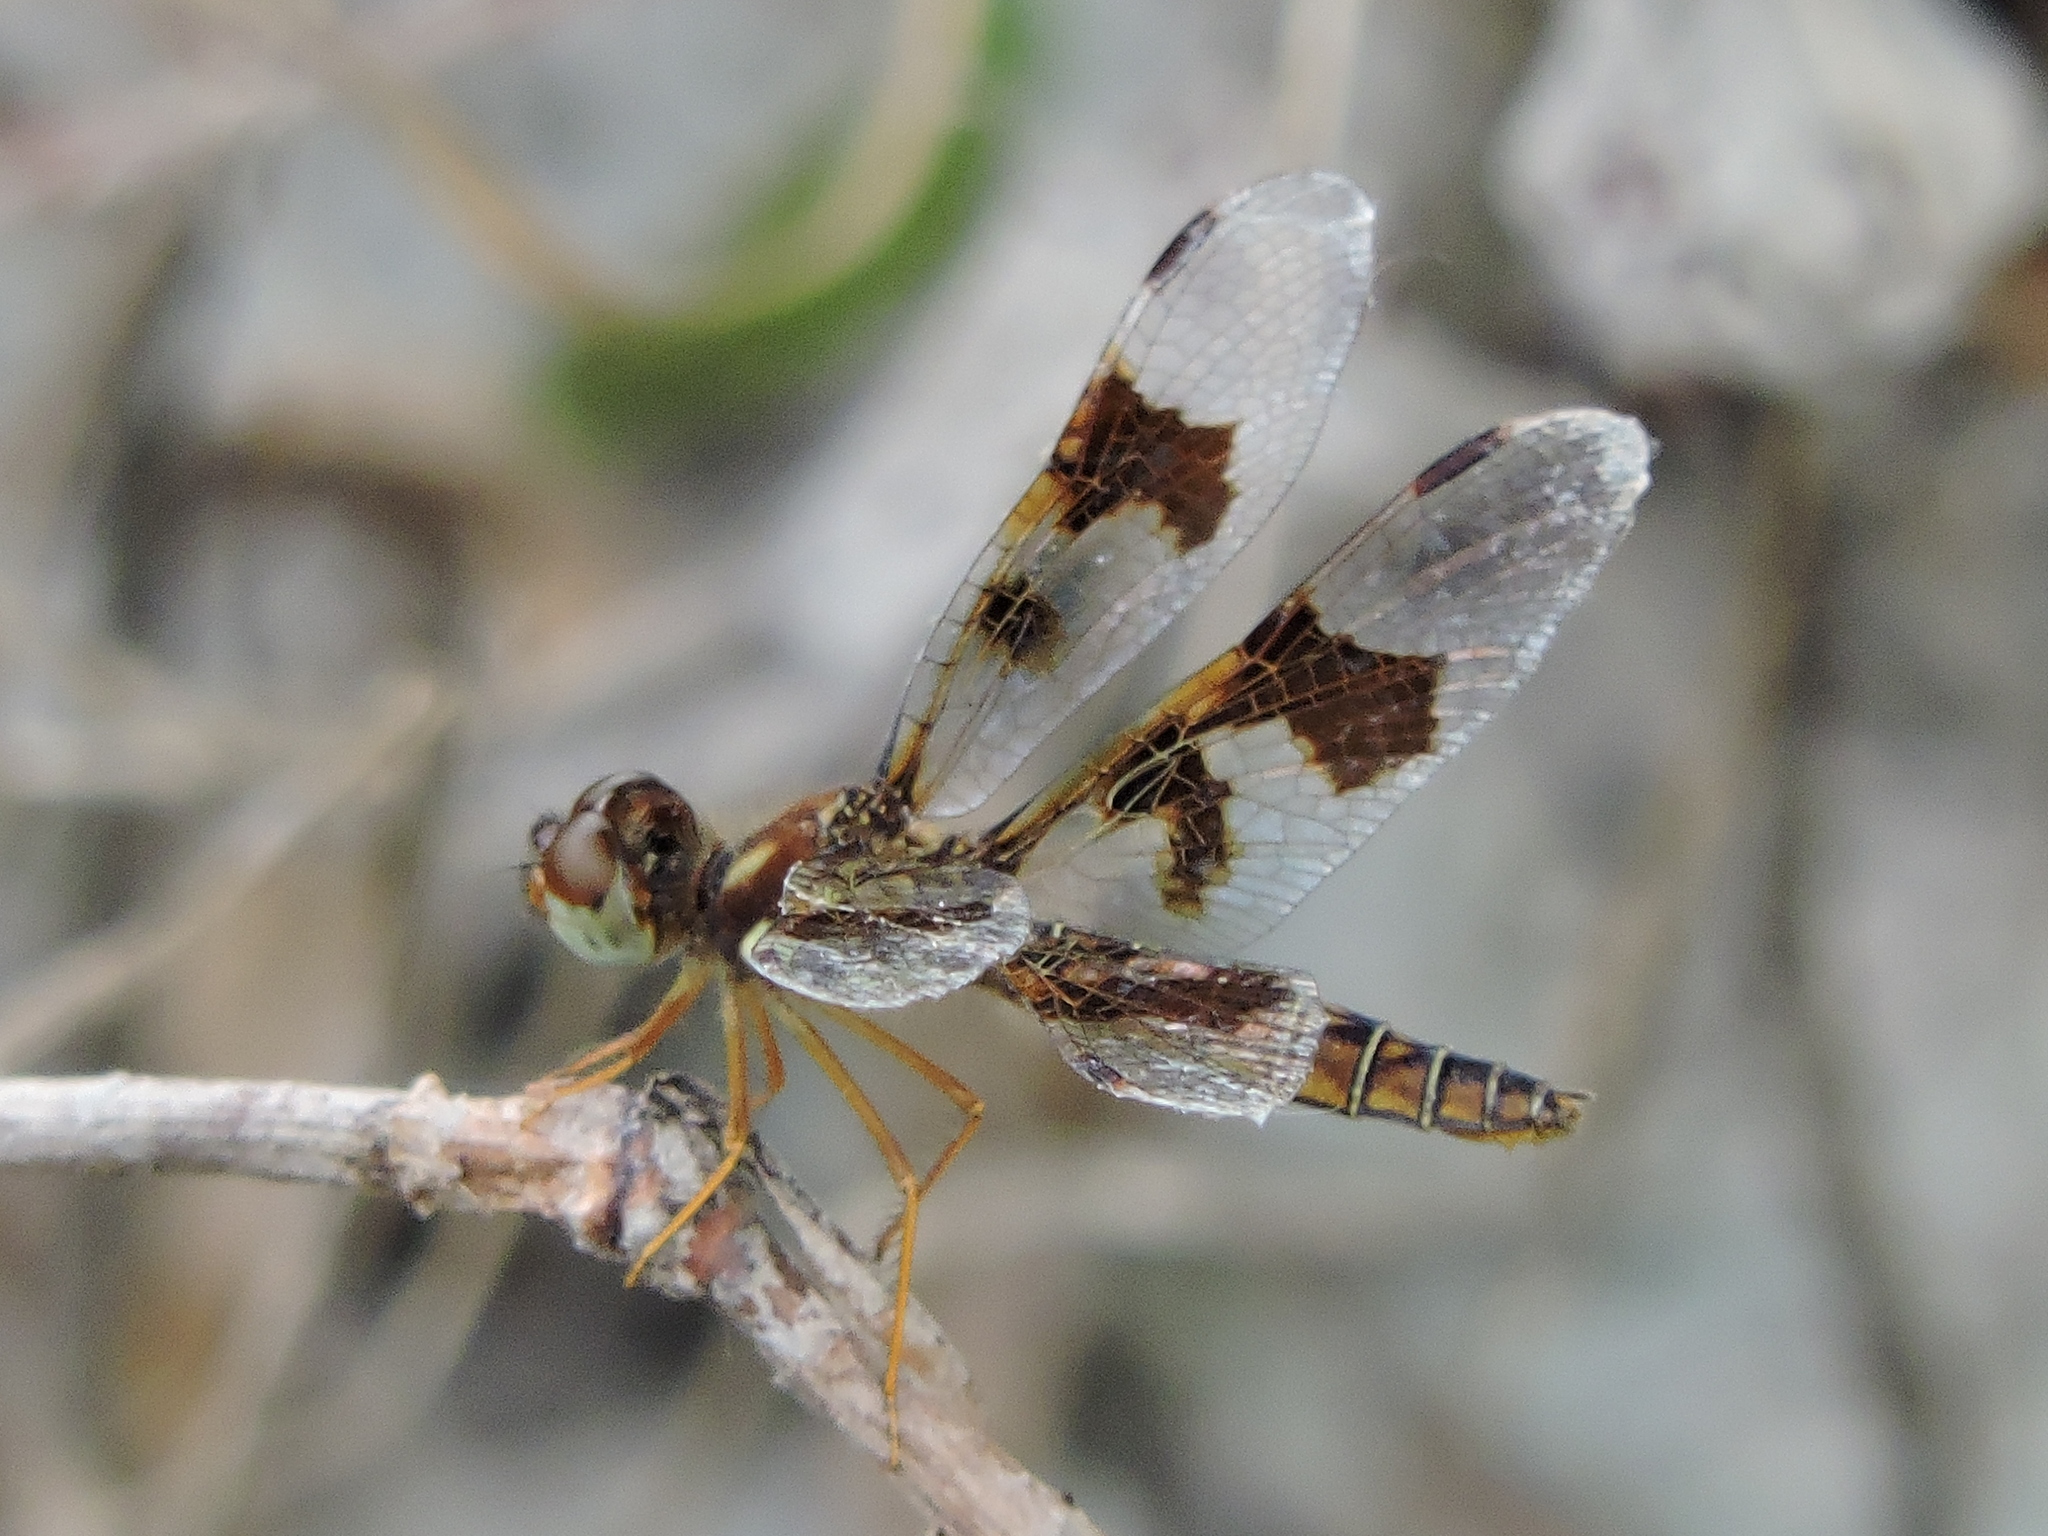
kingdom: Animalia
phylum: Arthropoda
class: Insecta
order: Odonata
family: Libellulidae
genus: Perithemis
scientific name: Perithemis tenera
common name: Eastern amberwing
